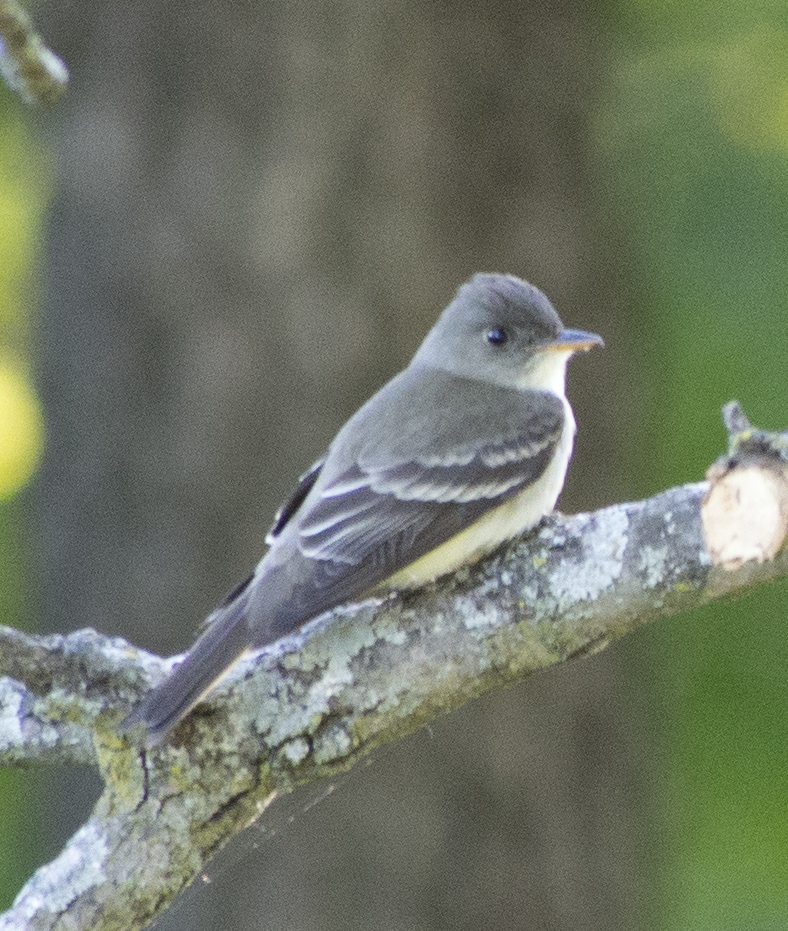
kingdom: Animalia
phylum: Chordata
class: Aves
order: Passeriformes
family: Tyrannidae
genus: Contopus
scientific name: Contopus virens
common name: Eastern wood-pewee
